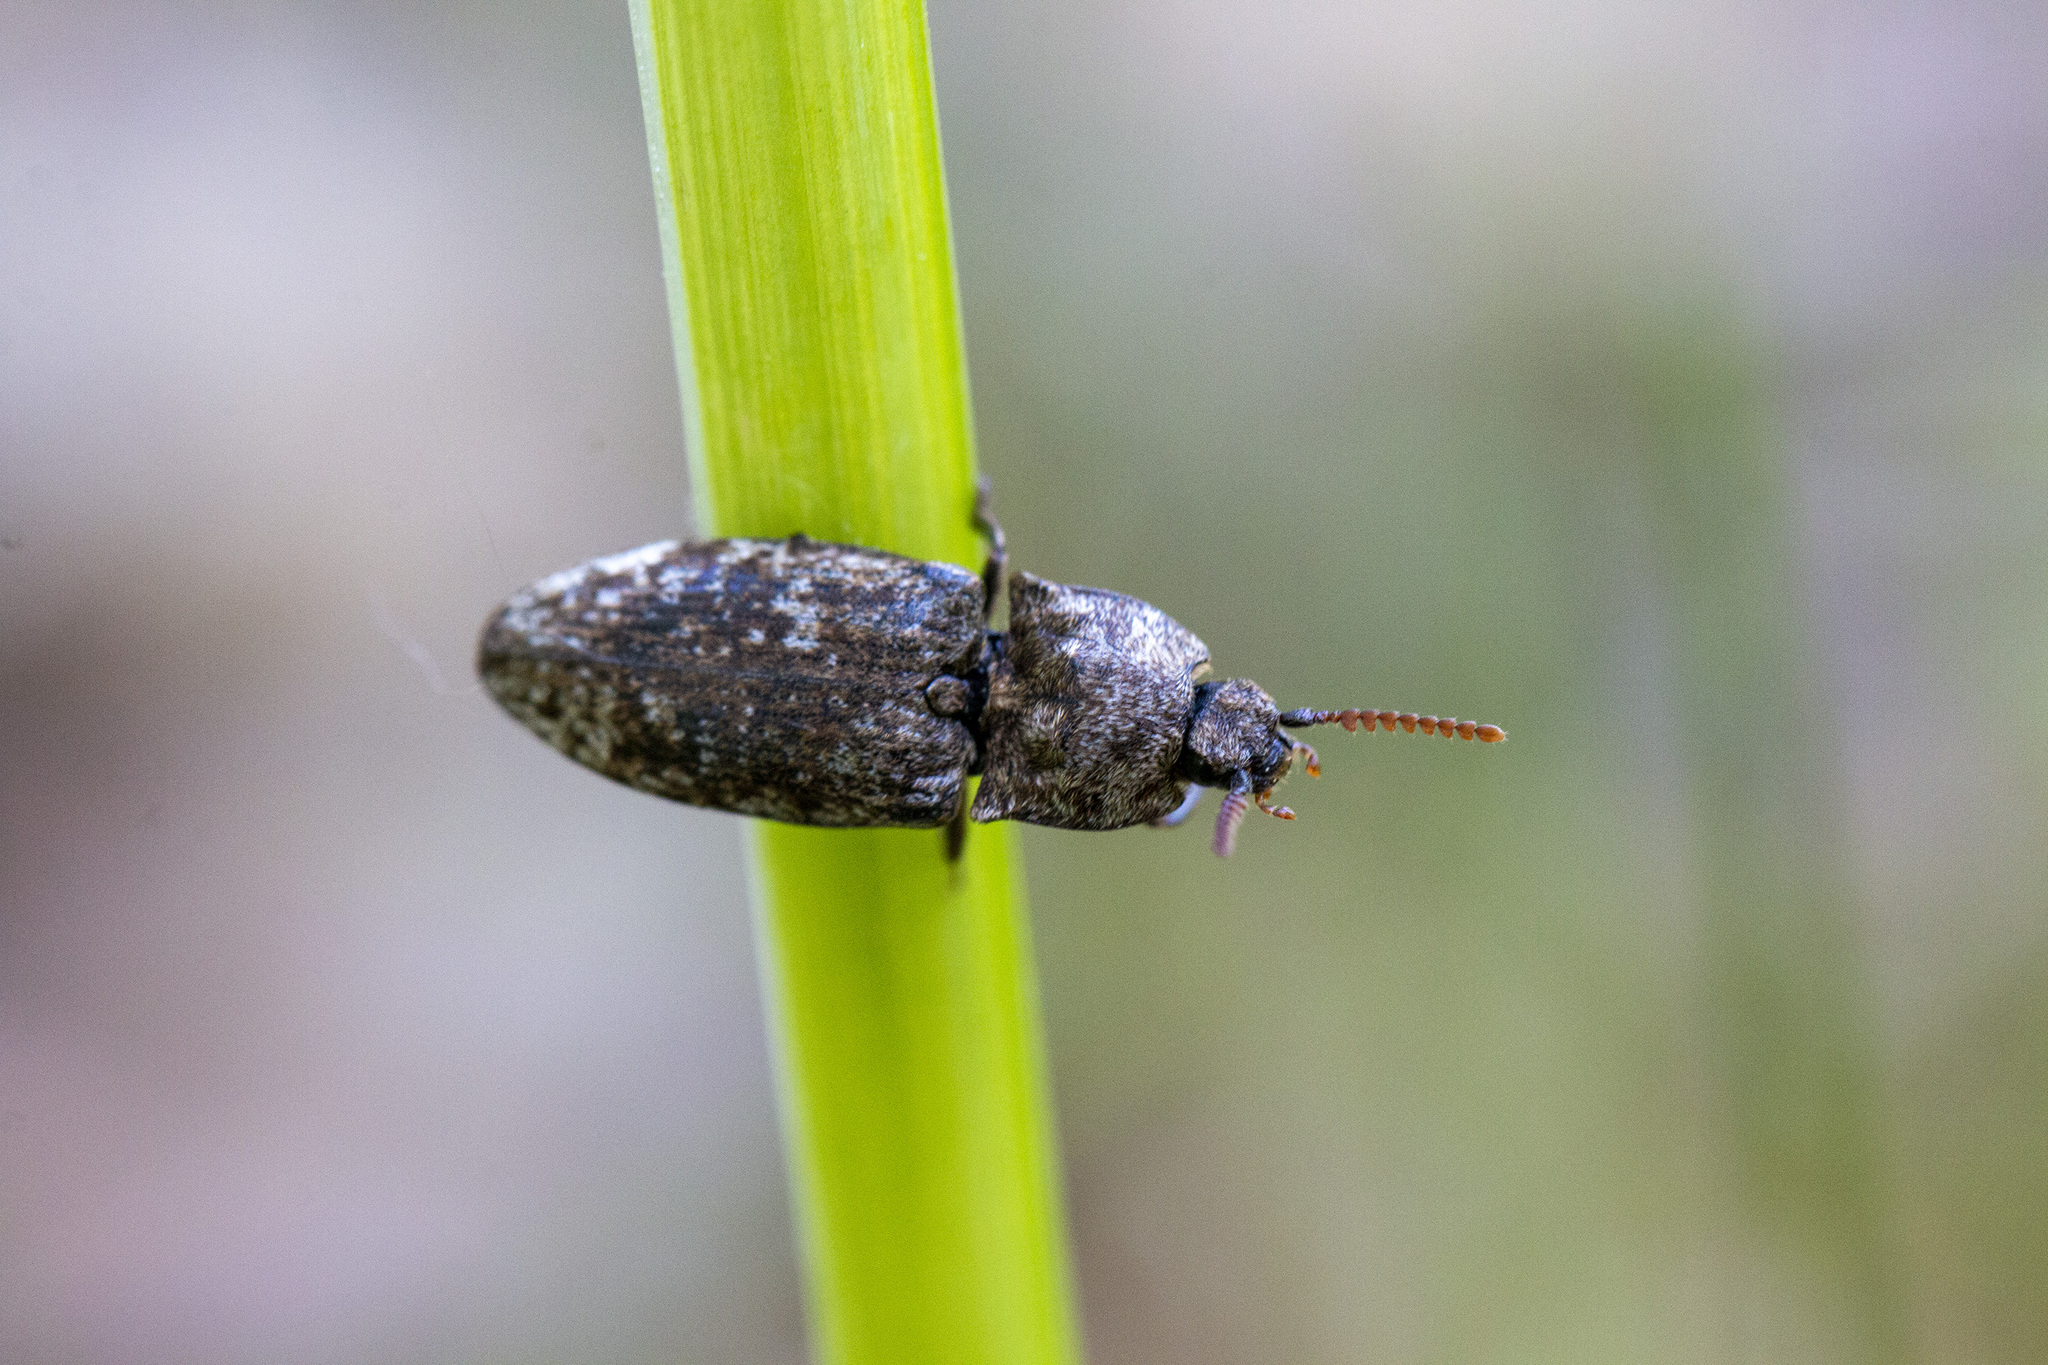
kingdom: Animalia
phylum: Arthropoda
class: Insecta
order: Coleoptera
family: Elateridae
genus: Agrypnus
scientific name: Agrypnus murinus
